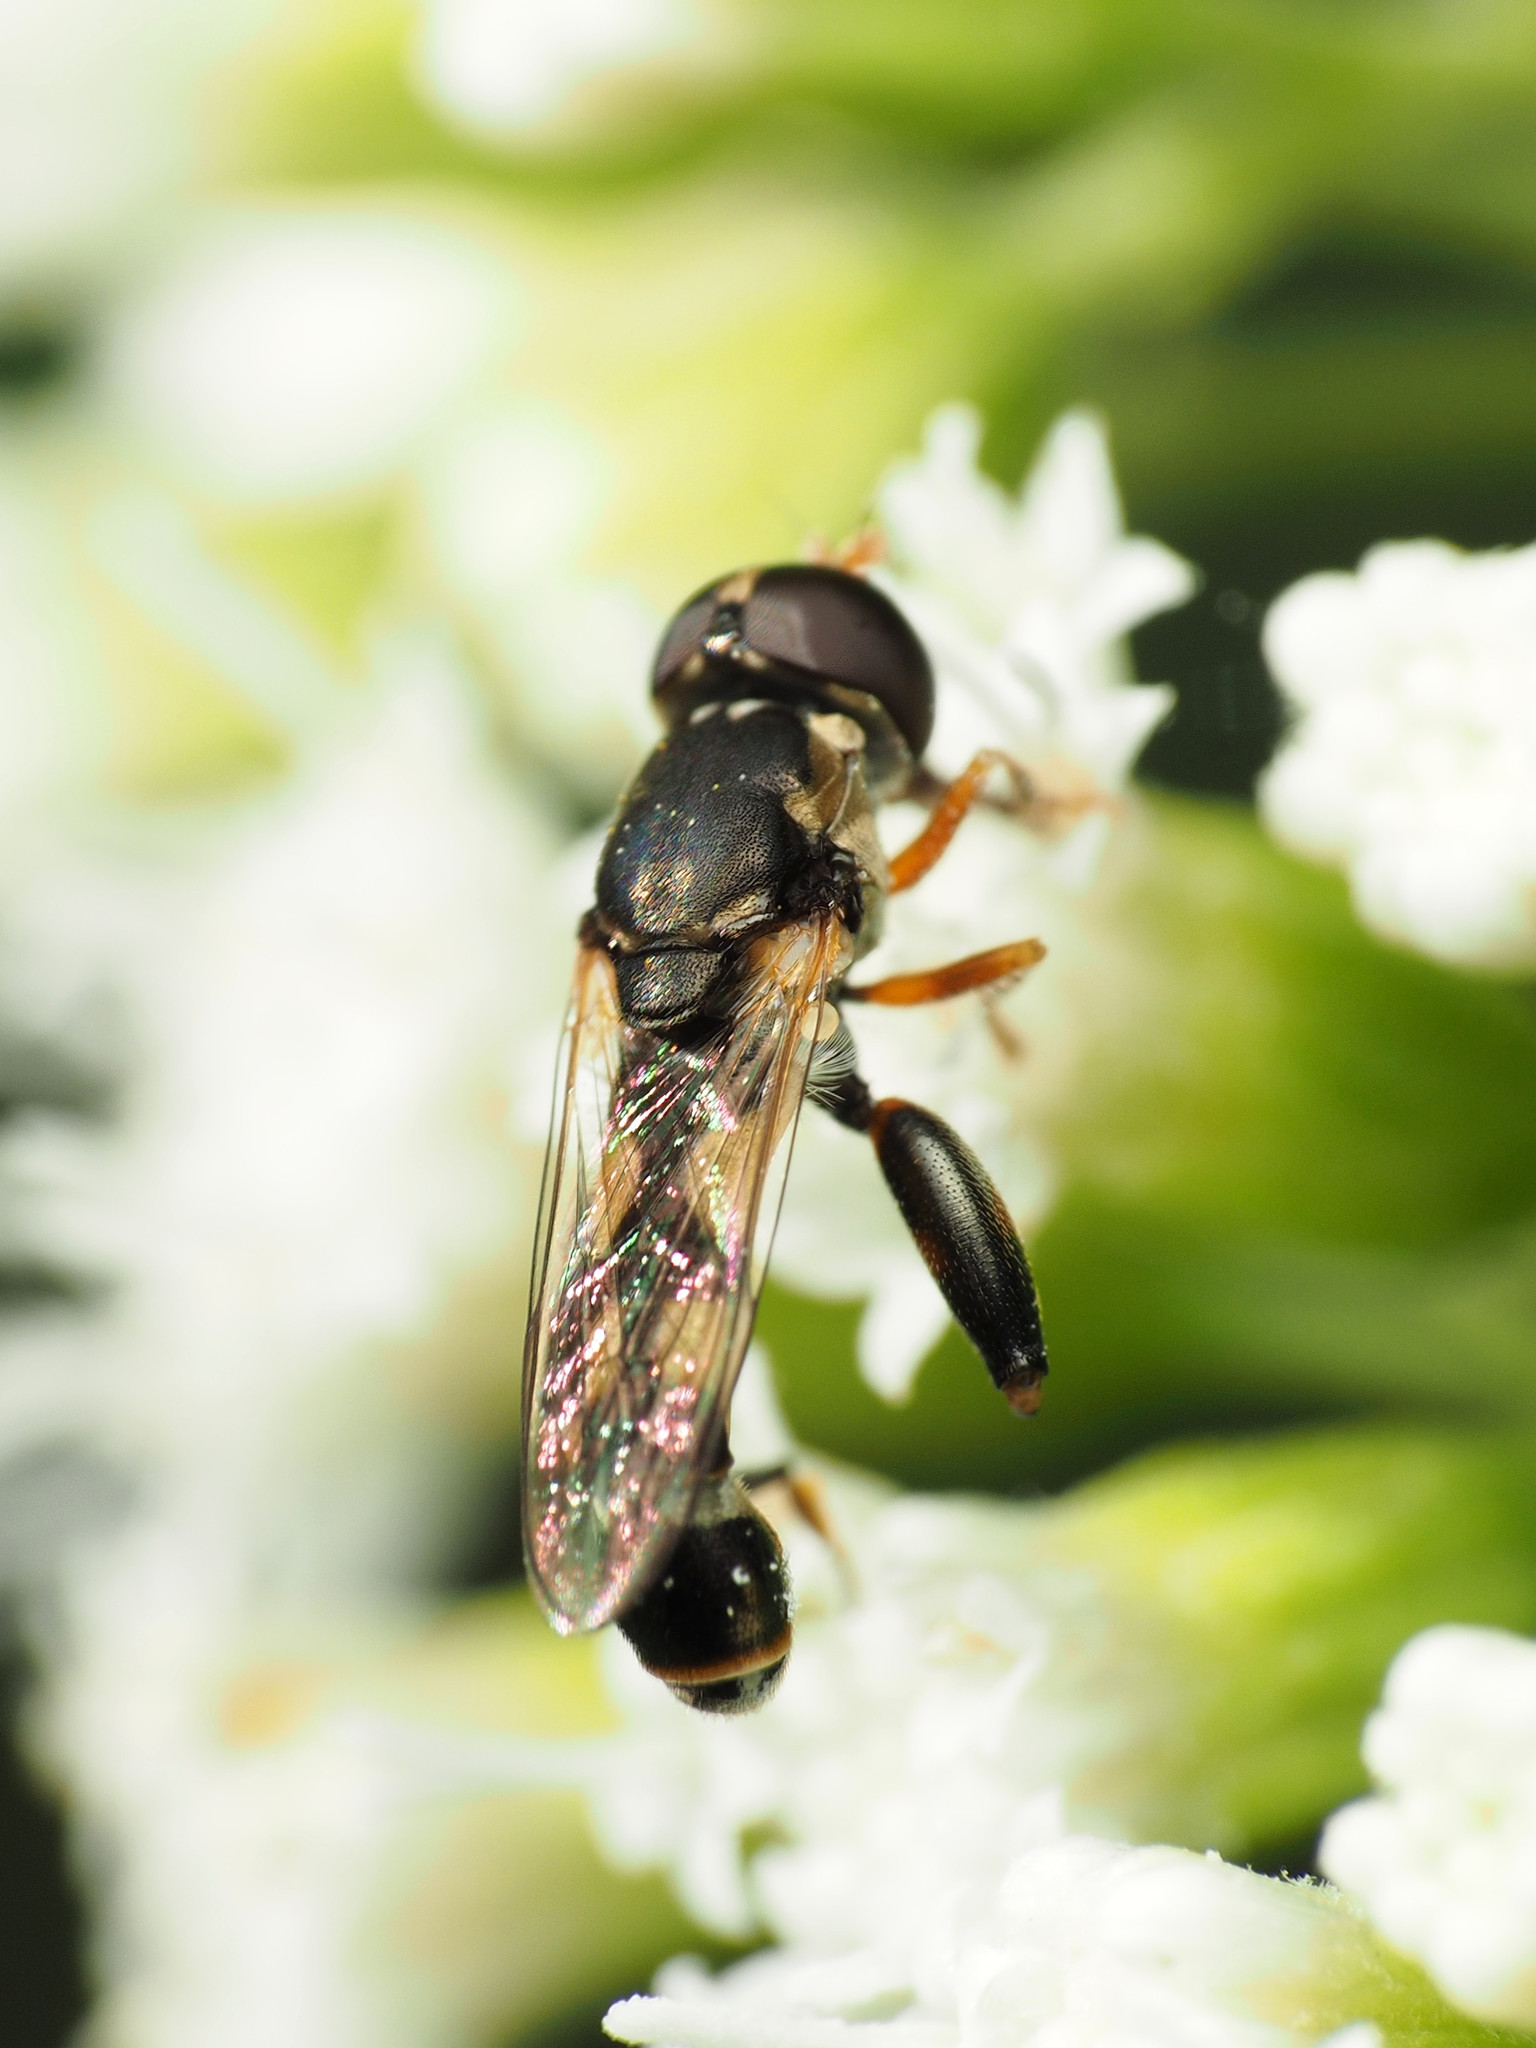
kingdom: Animalia
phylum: Arthropoda
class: Insecta
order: Diptera
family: Syrphidae
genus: Syritta
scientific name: Syritta pipiens
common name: Hover fly
